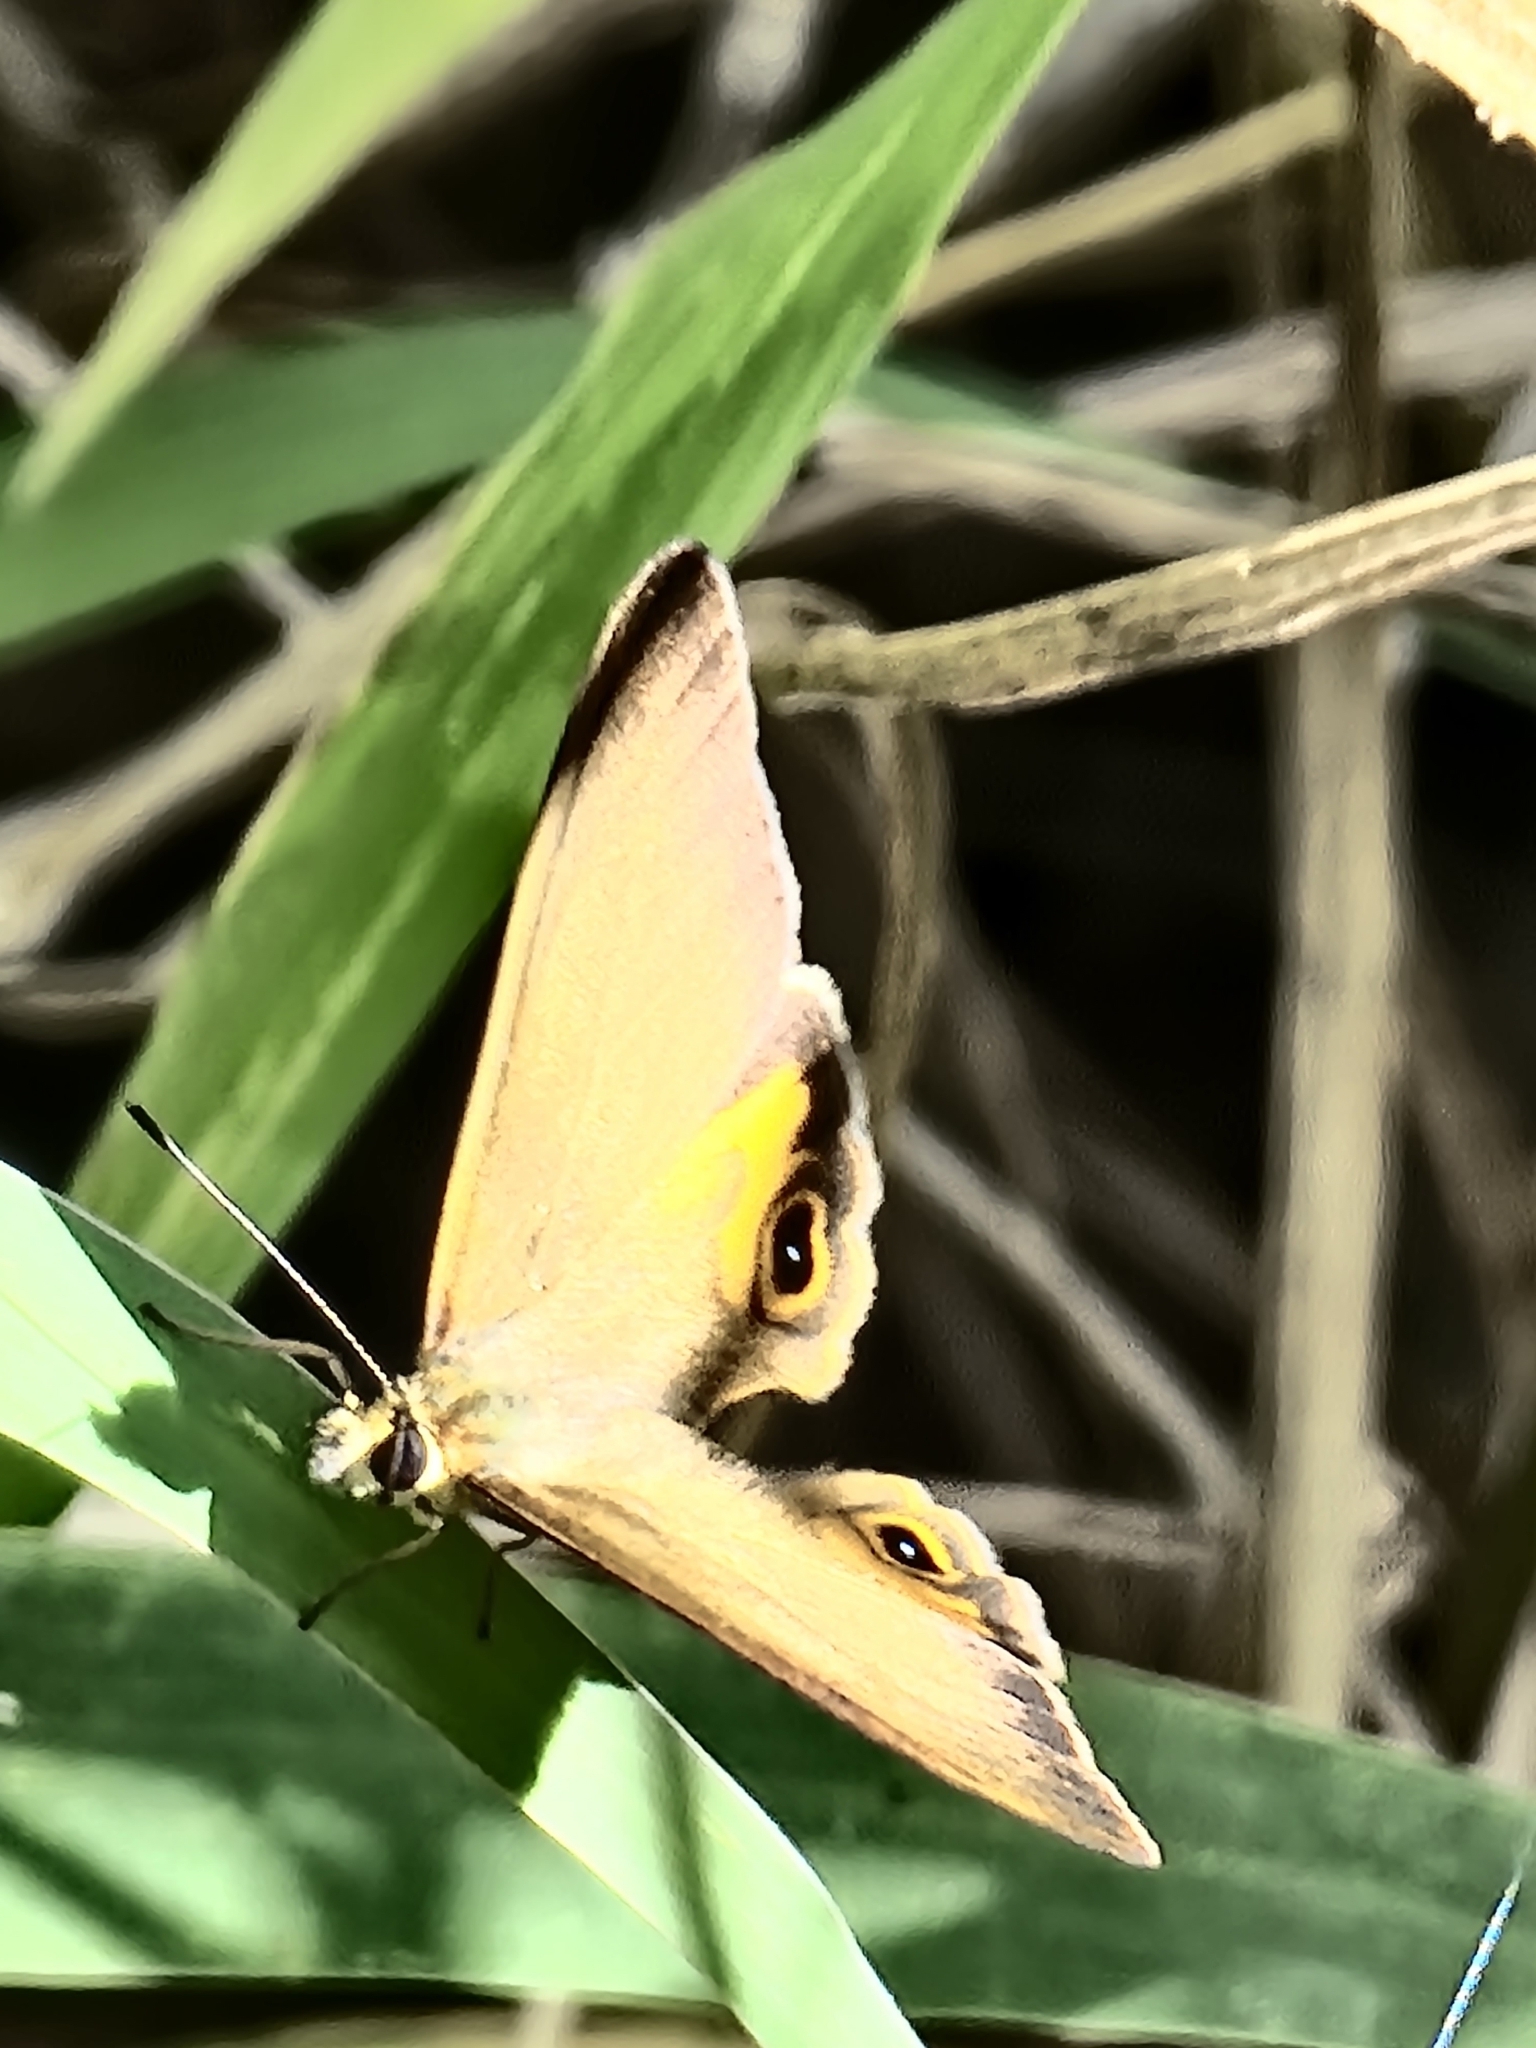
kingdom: Animalia
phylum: Arthropoda
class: Insecta
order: Lepidoptera
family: Nymphalidae
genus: Hypocysta
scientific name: Hypocysta metirius
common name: Brown ringlet
